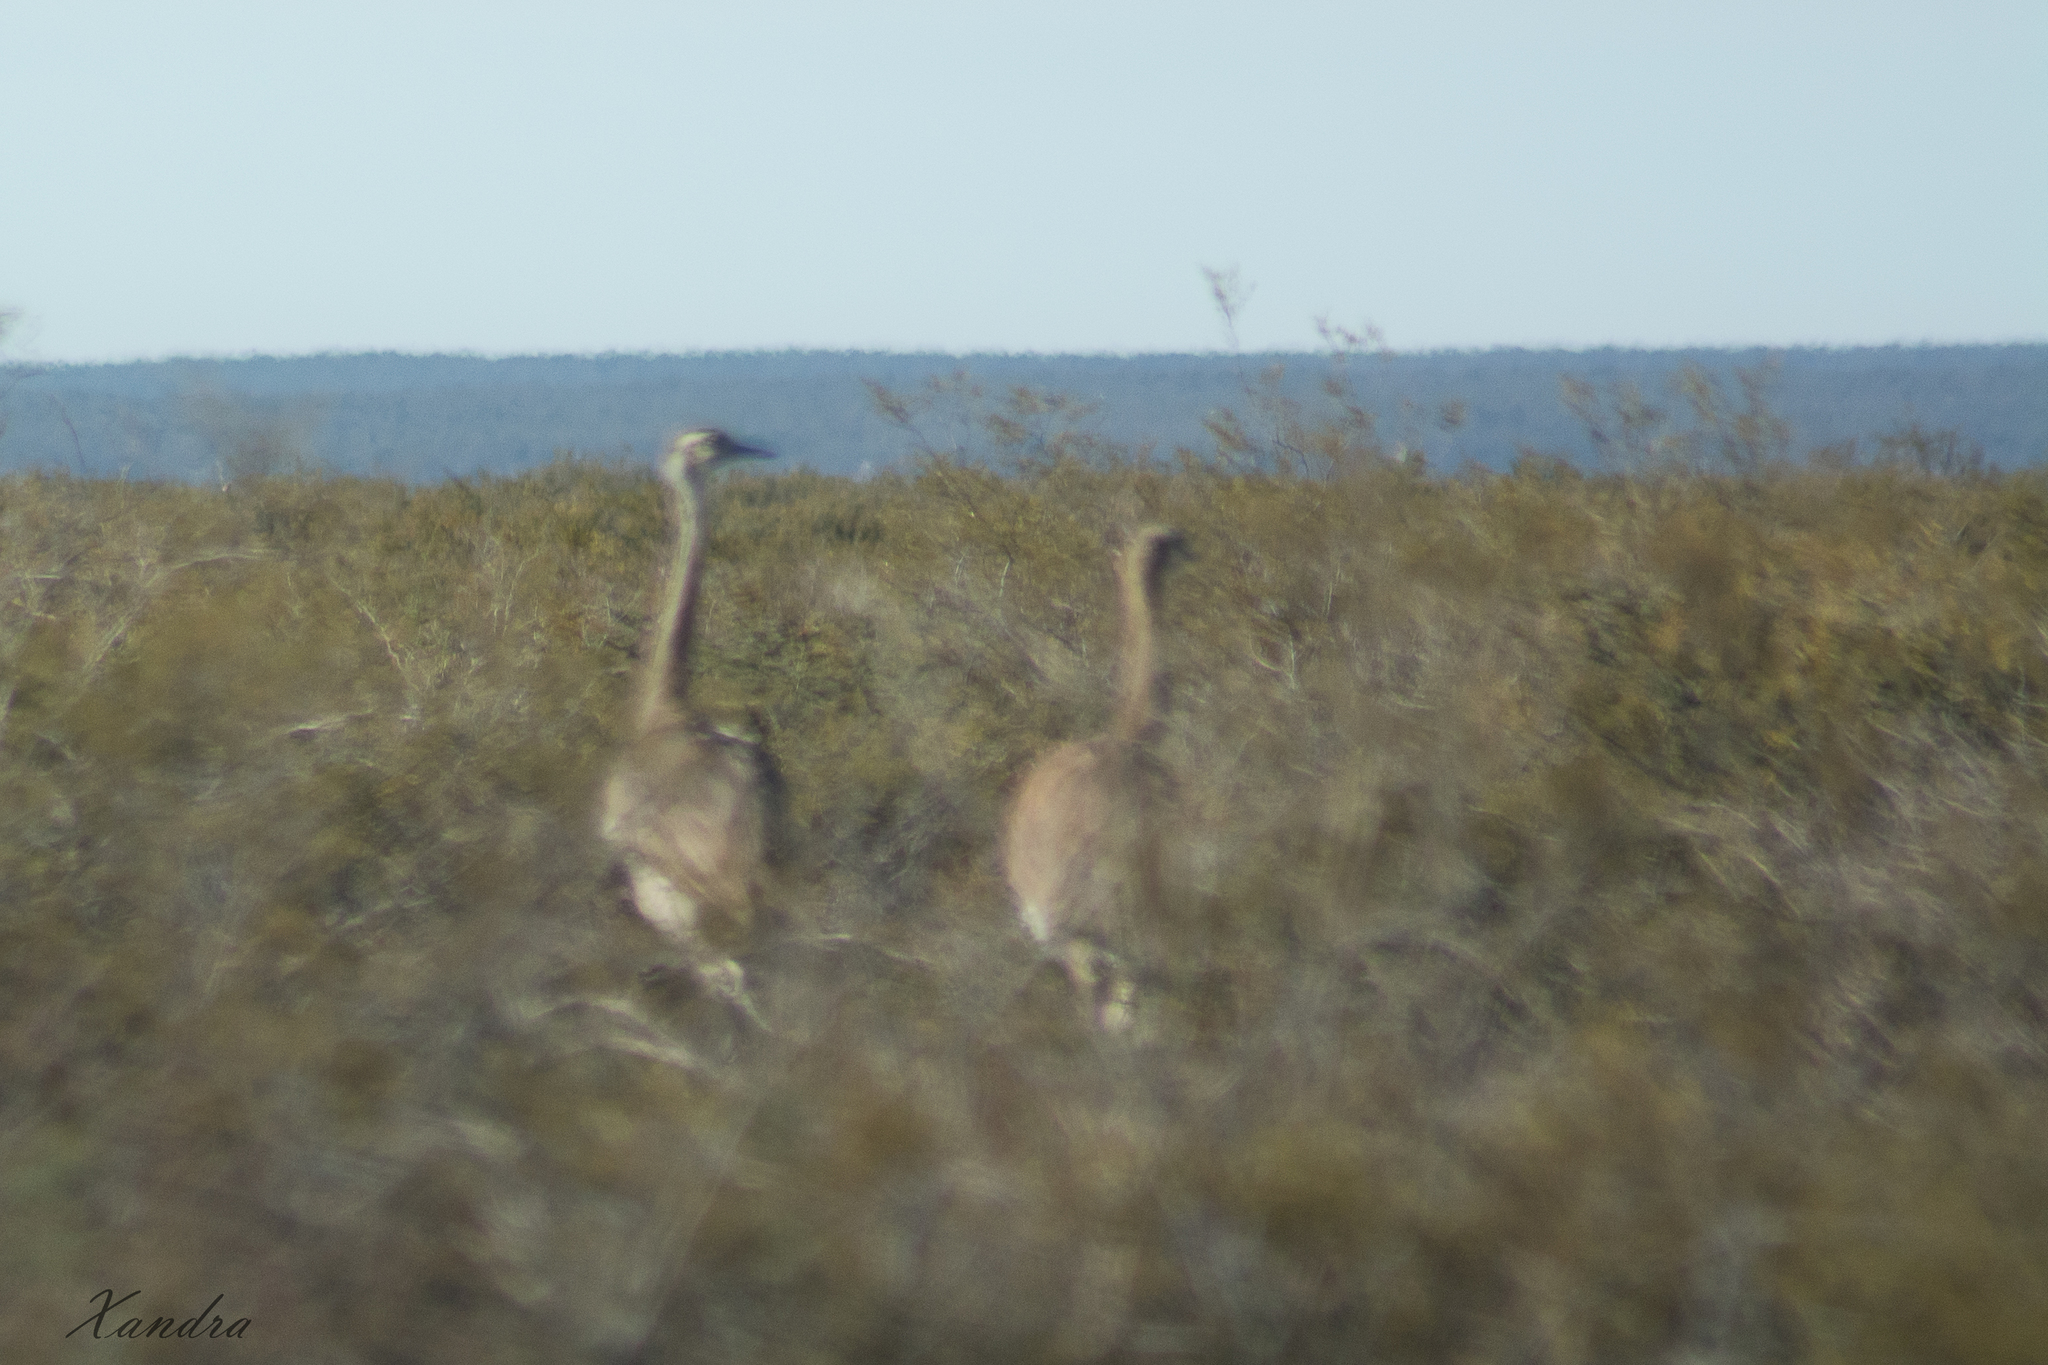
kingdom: Animalia
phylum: Chordata
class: Aves
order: Rheiformes
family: Rheidae
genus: Rhea
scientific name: Rhea pennata
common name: Lesser rhea
